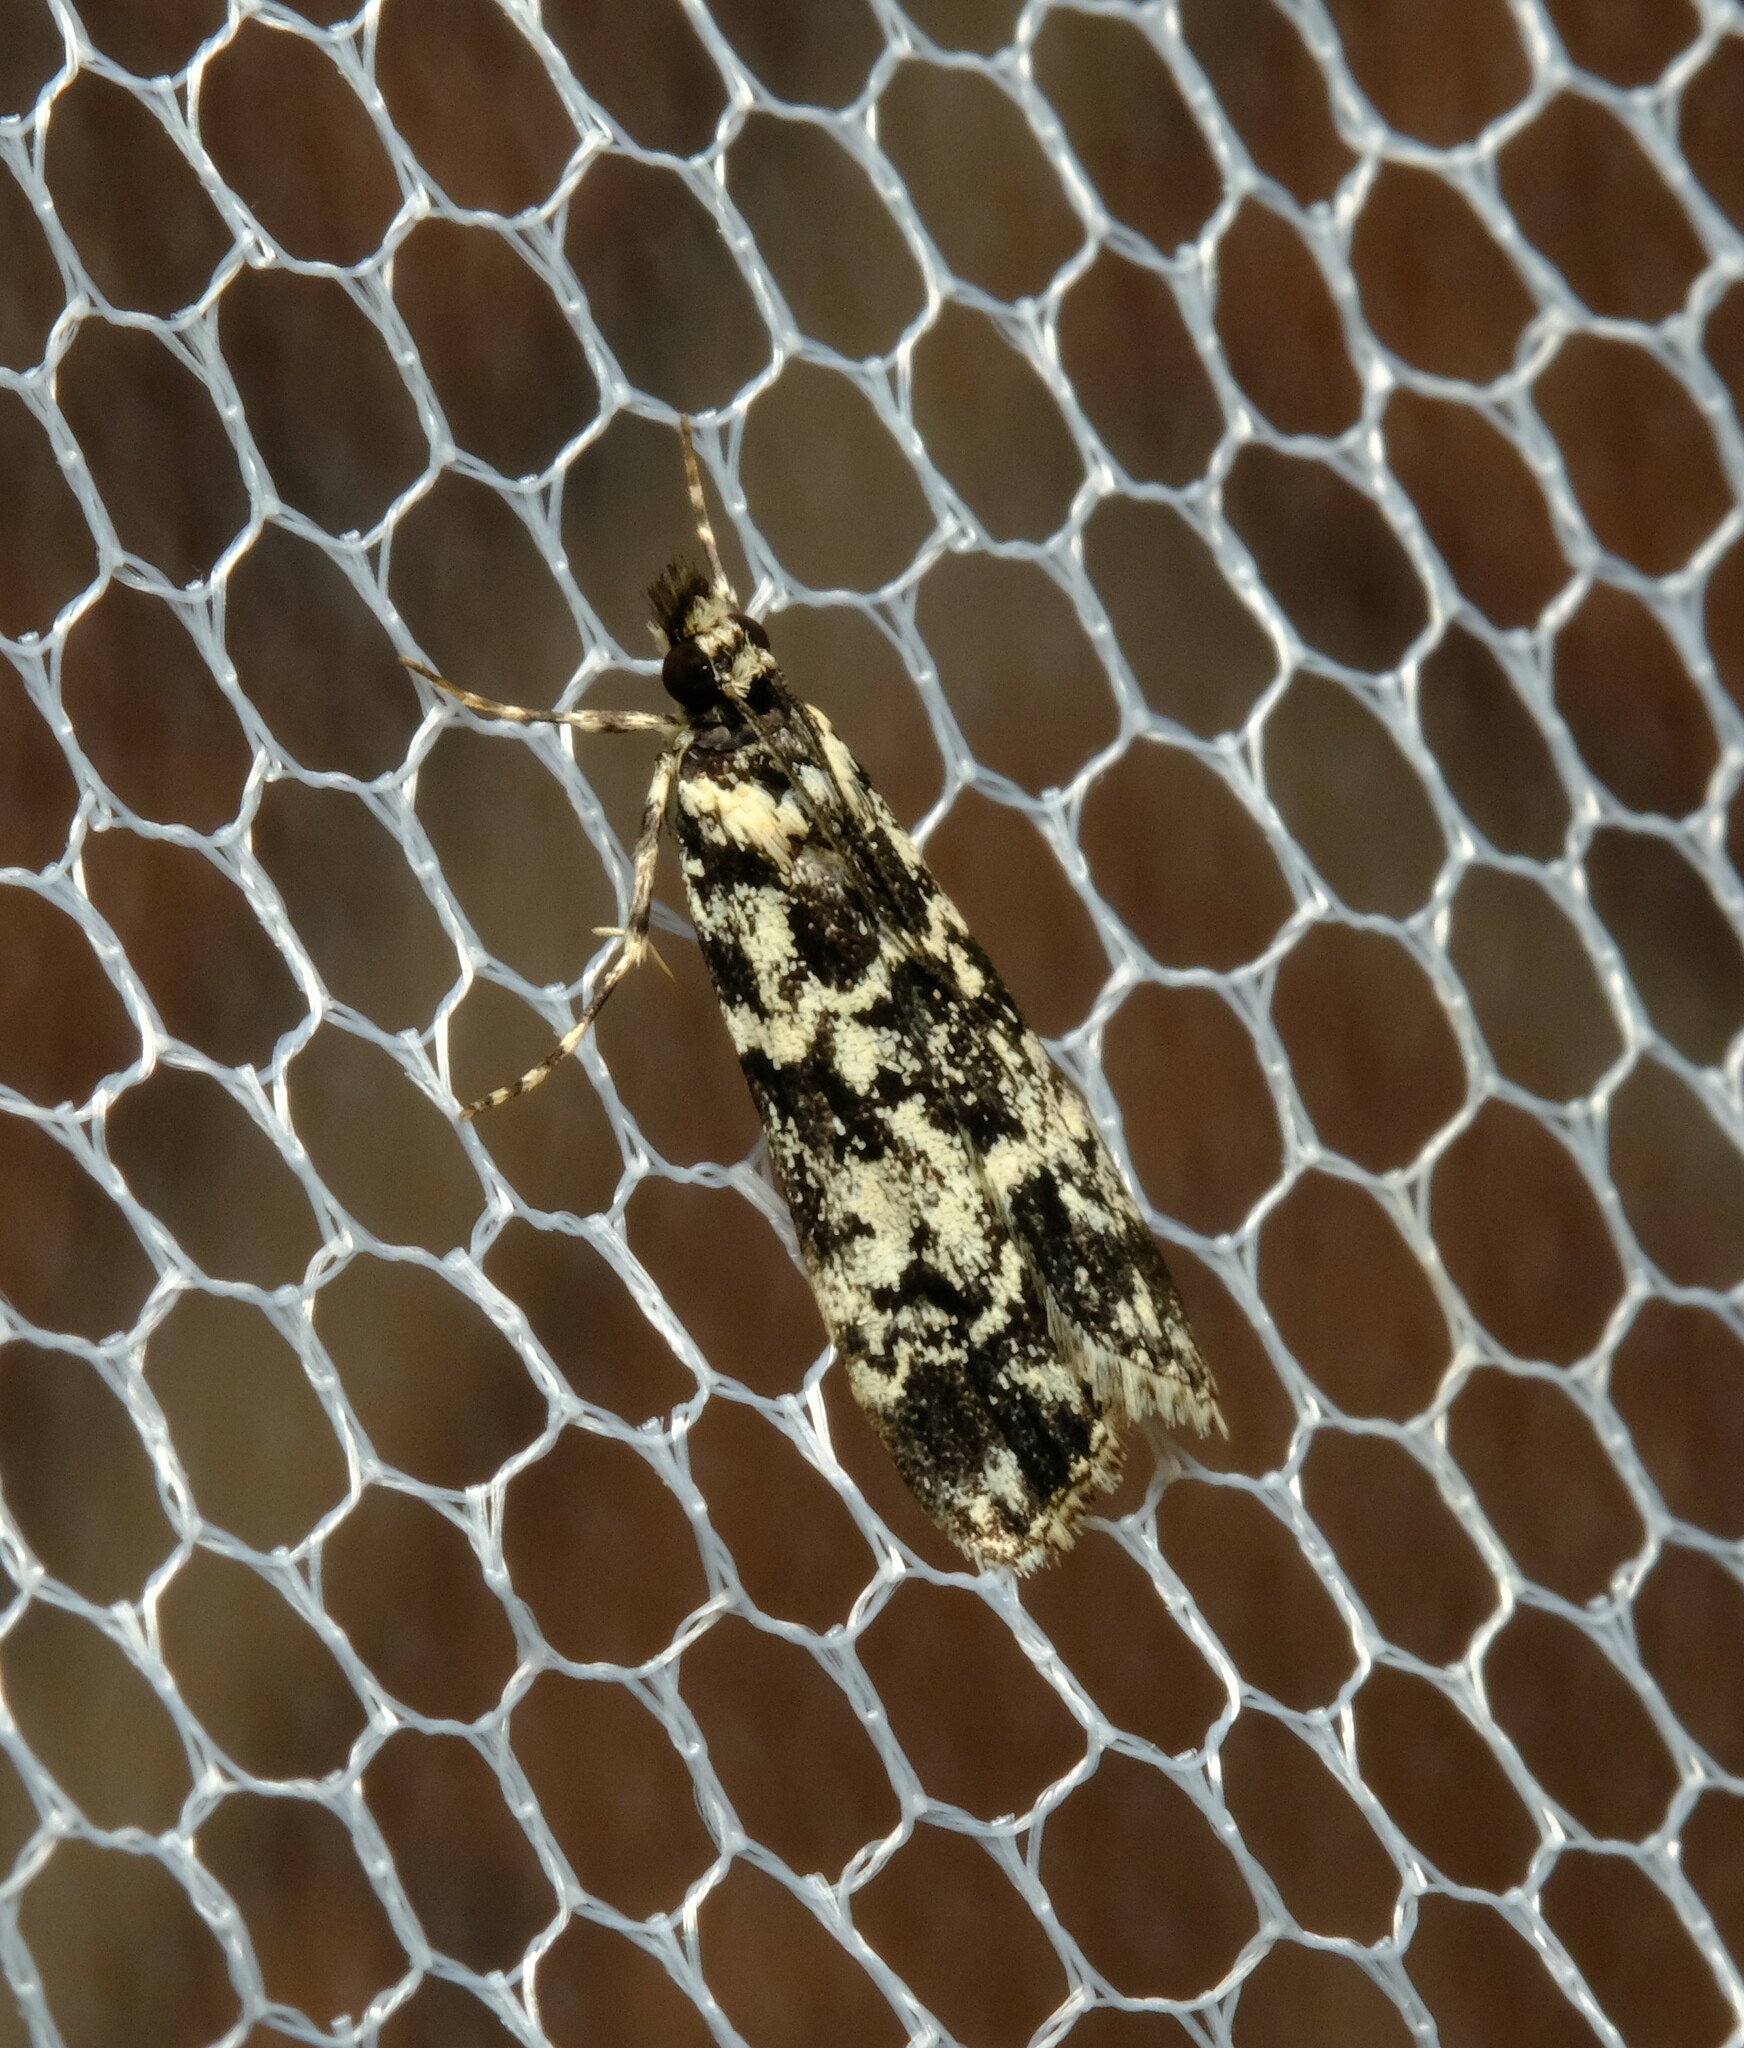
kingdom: Animalia
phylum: Arthropoda
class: Insecta
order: Lepidoptera
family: Crambidae
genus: Scoparia
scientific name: Scoparia exhibitalis
